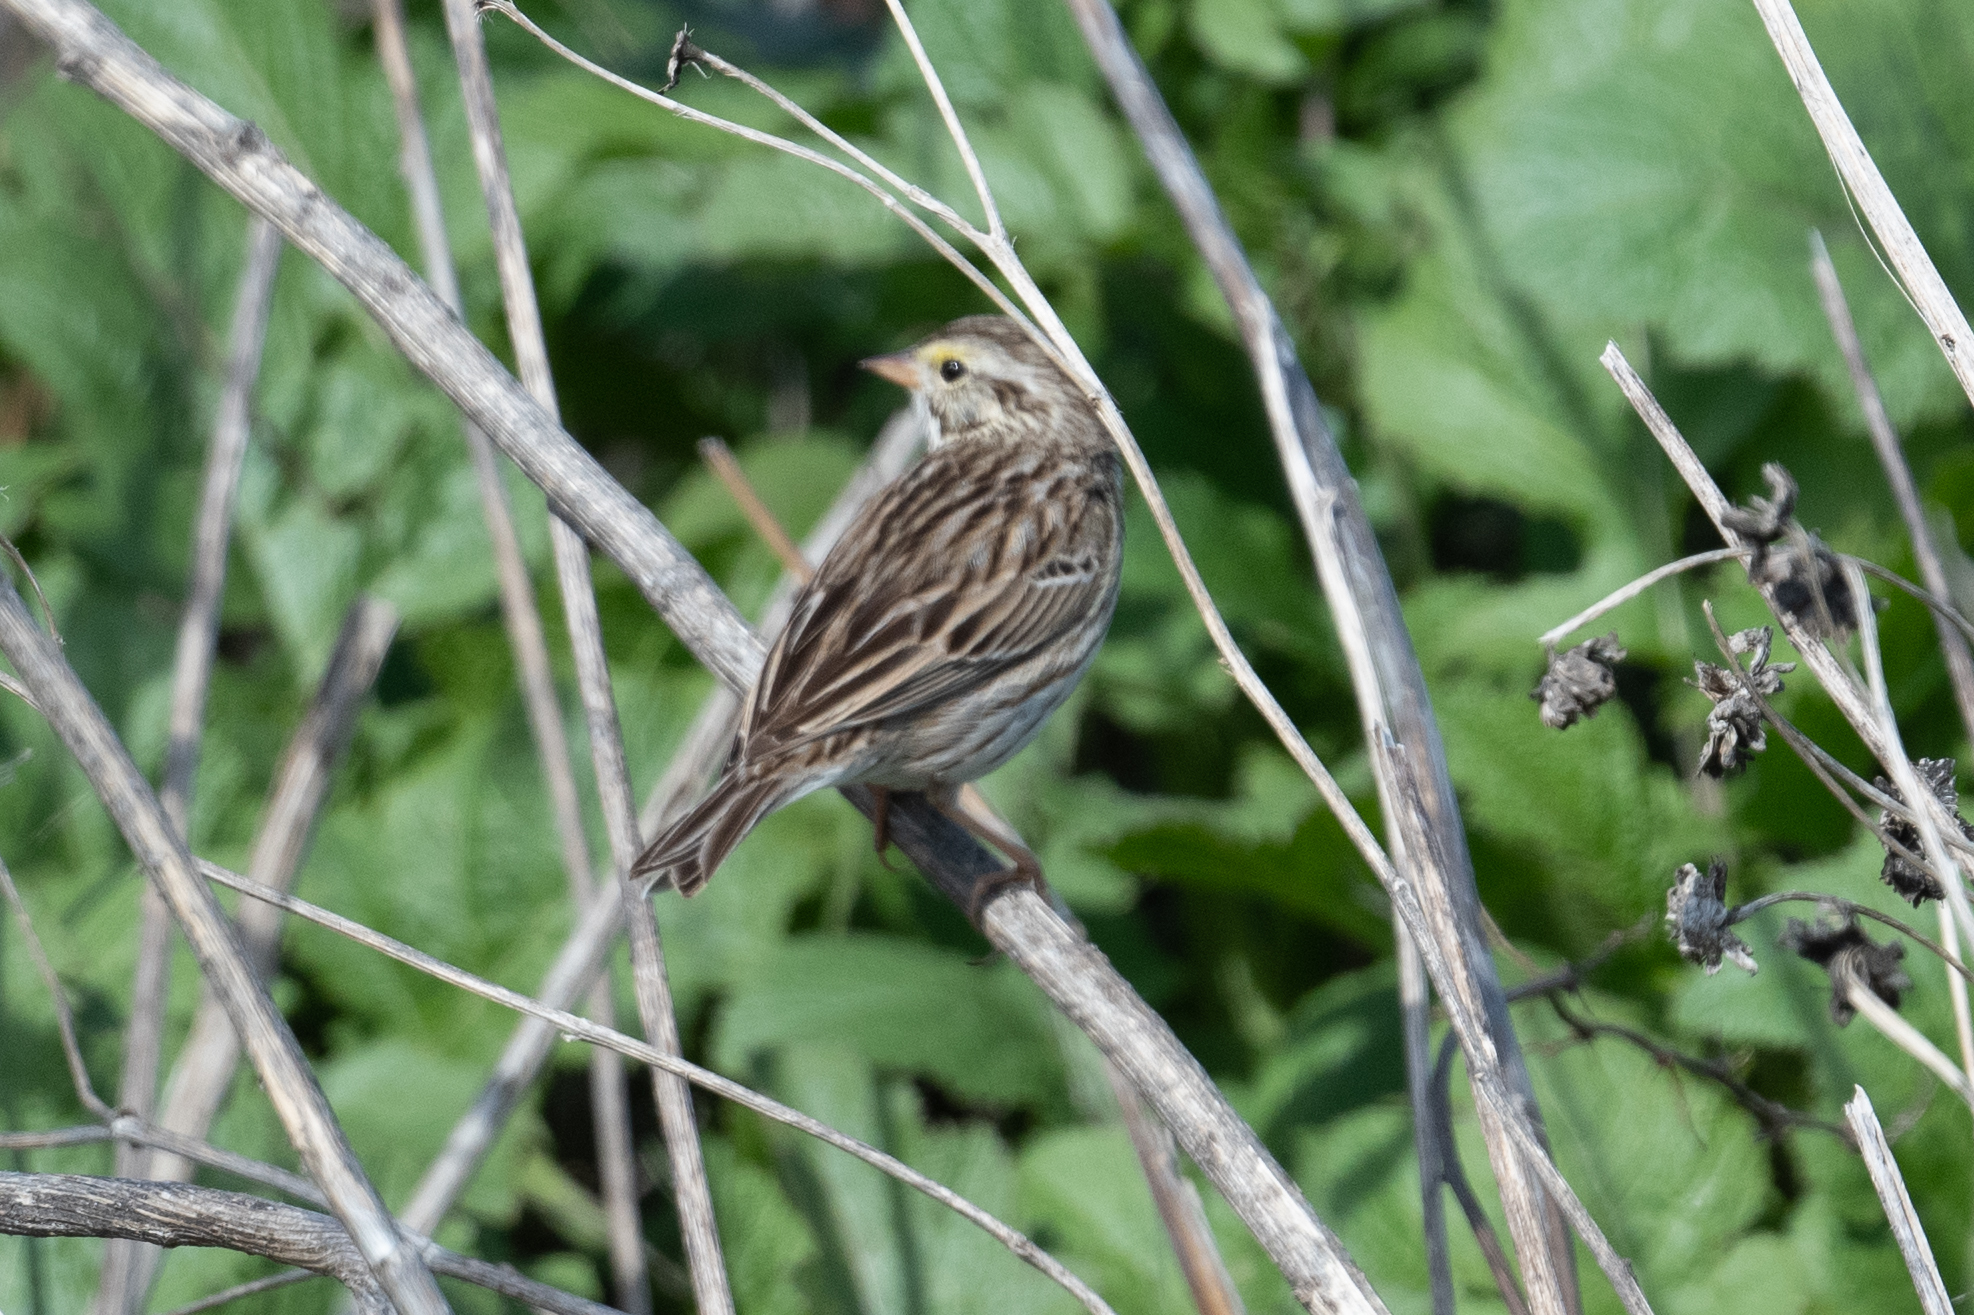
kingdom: Animalia
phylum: Chordata
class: Aves
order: Passeriformes
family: Passerellidae
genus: Passerculus
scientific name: Passerculus sandwichensis
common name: Savannah sparrow
